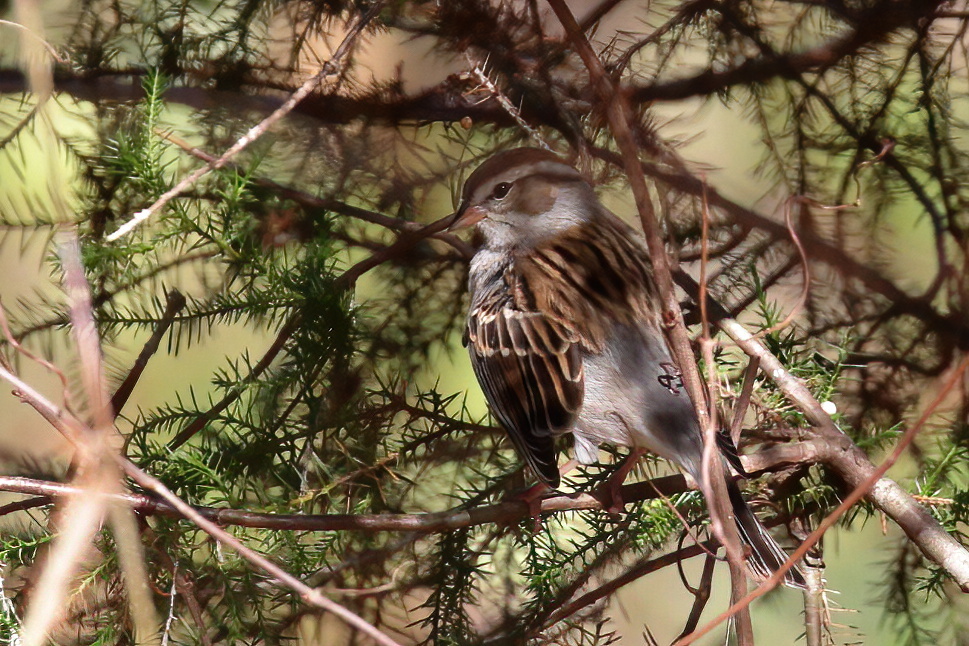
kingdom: Animalia
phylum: Chordata
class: Aves
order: Passeriformes
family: Passerellidae
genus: Spizella
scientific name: Spizella passerina
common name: Chipping sparrow
